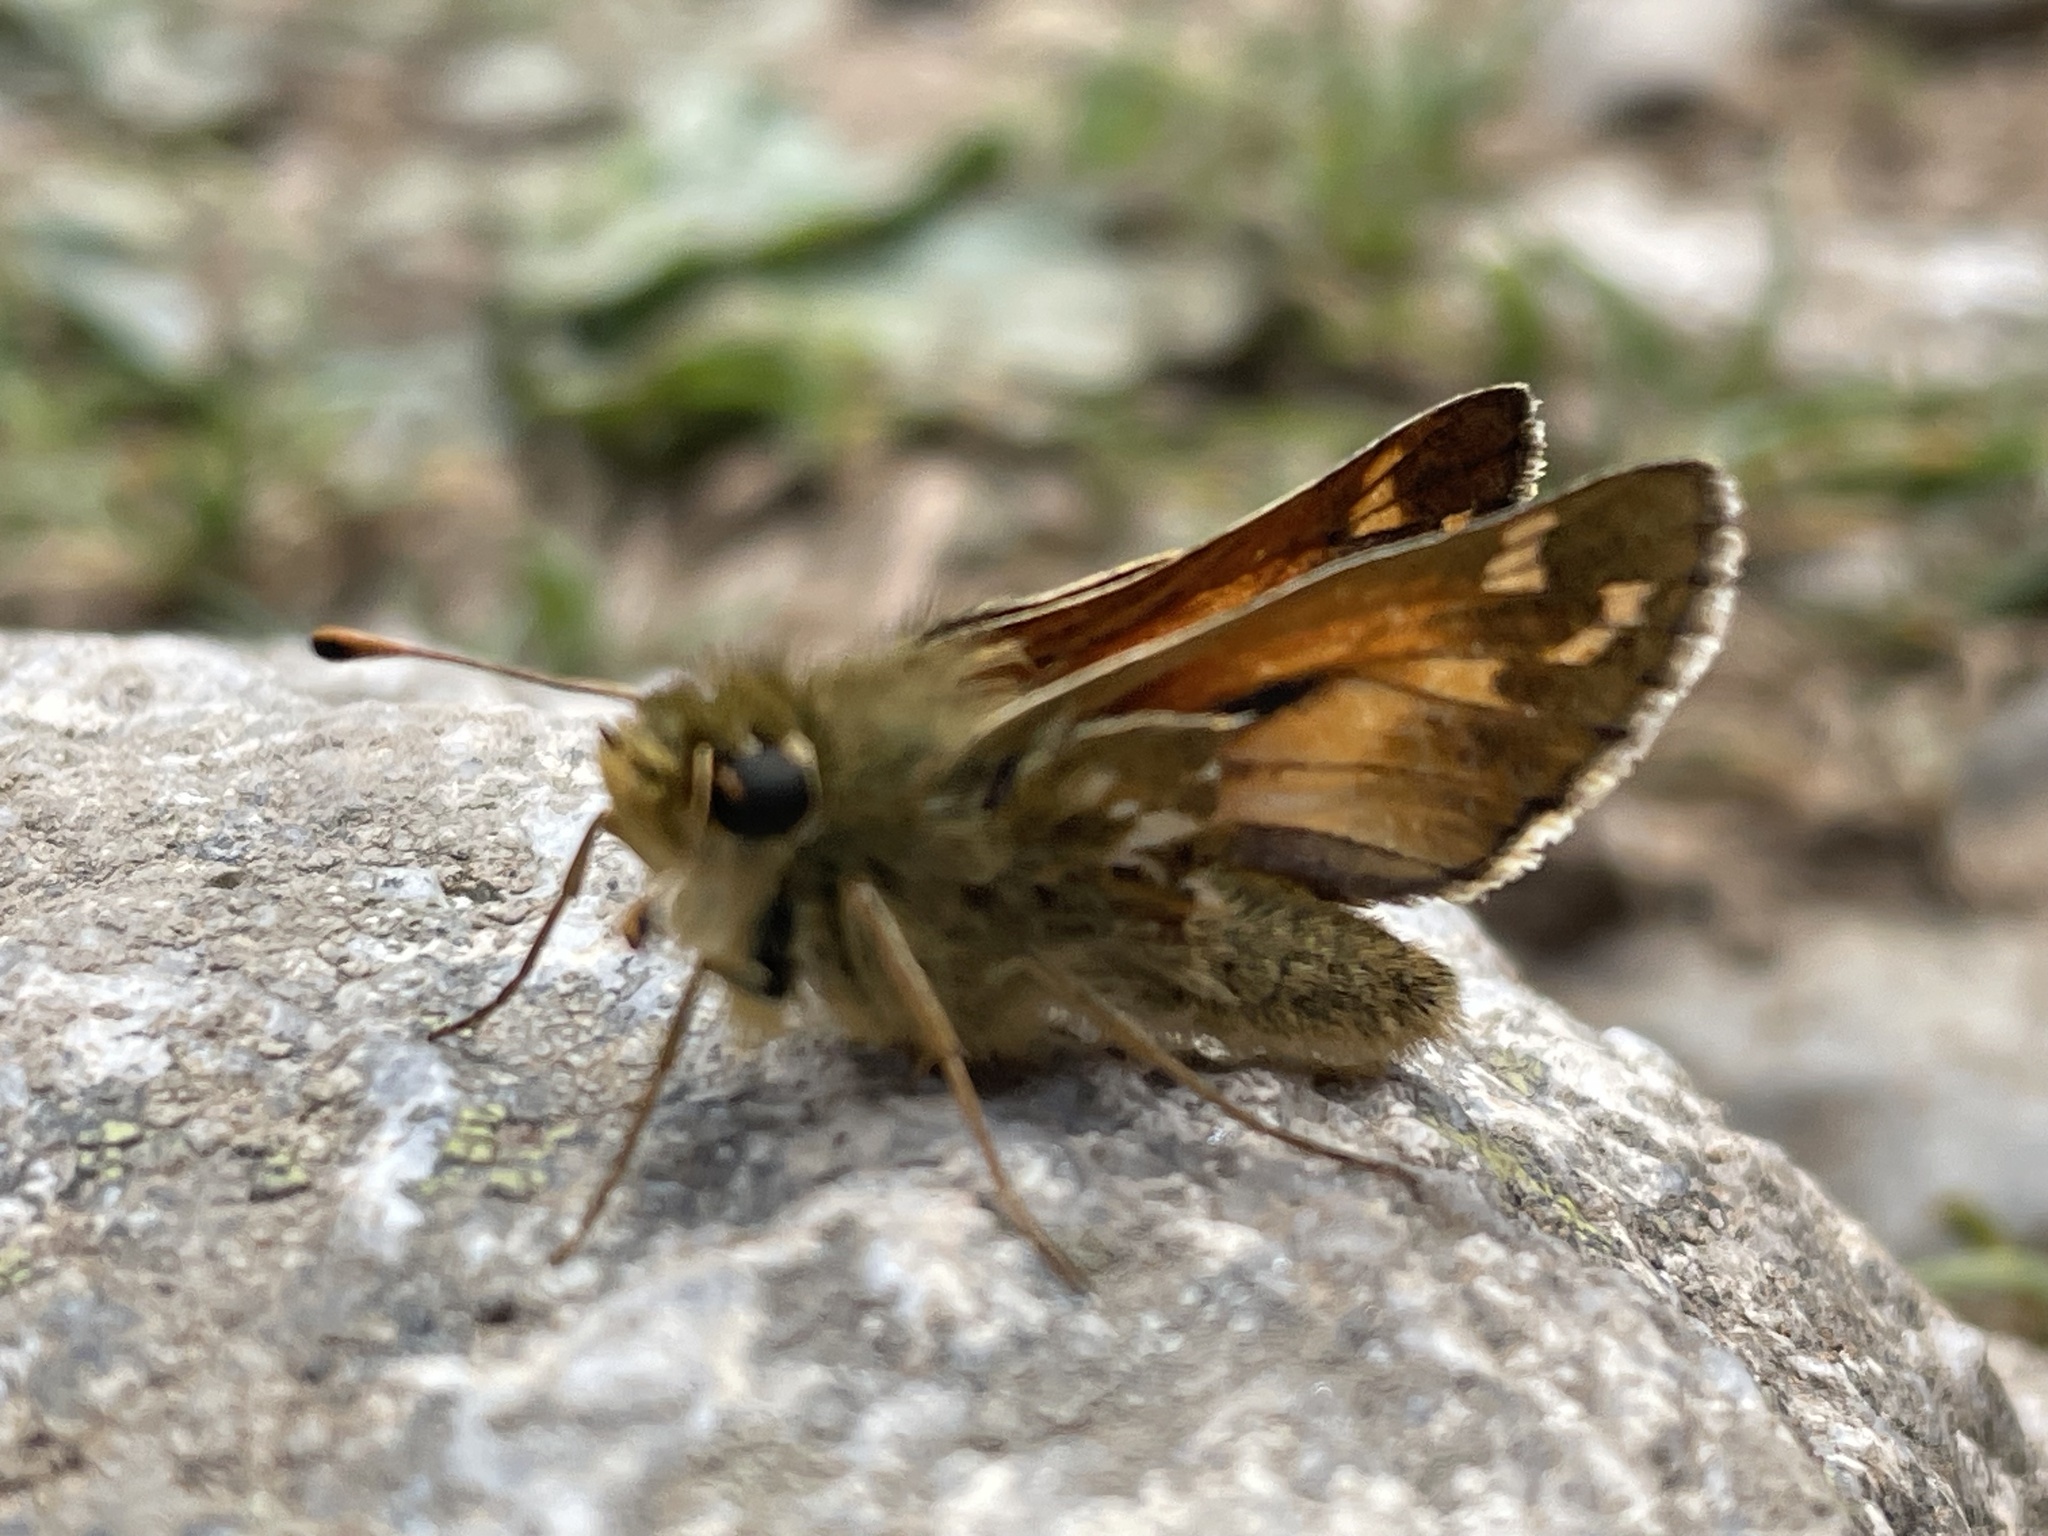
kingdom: Animalia
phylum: Arthropoda
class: Insecta
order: Lepidoptera
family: Hesperiidae
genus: Hesperia
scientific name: Hesperia comma
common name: Common branded skipper
